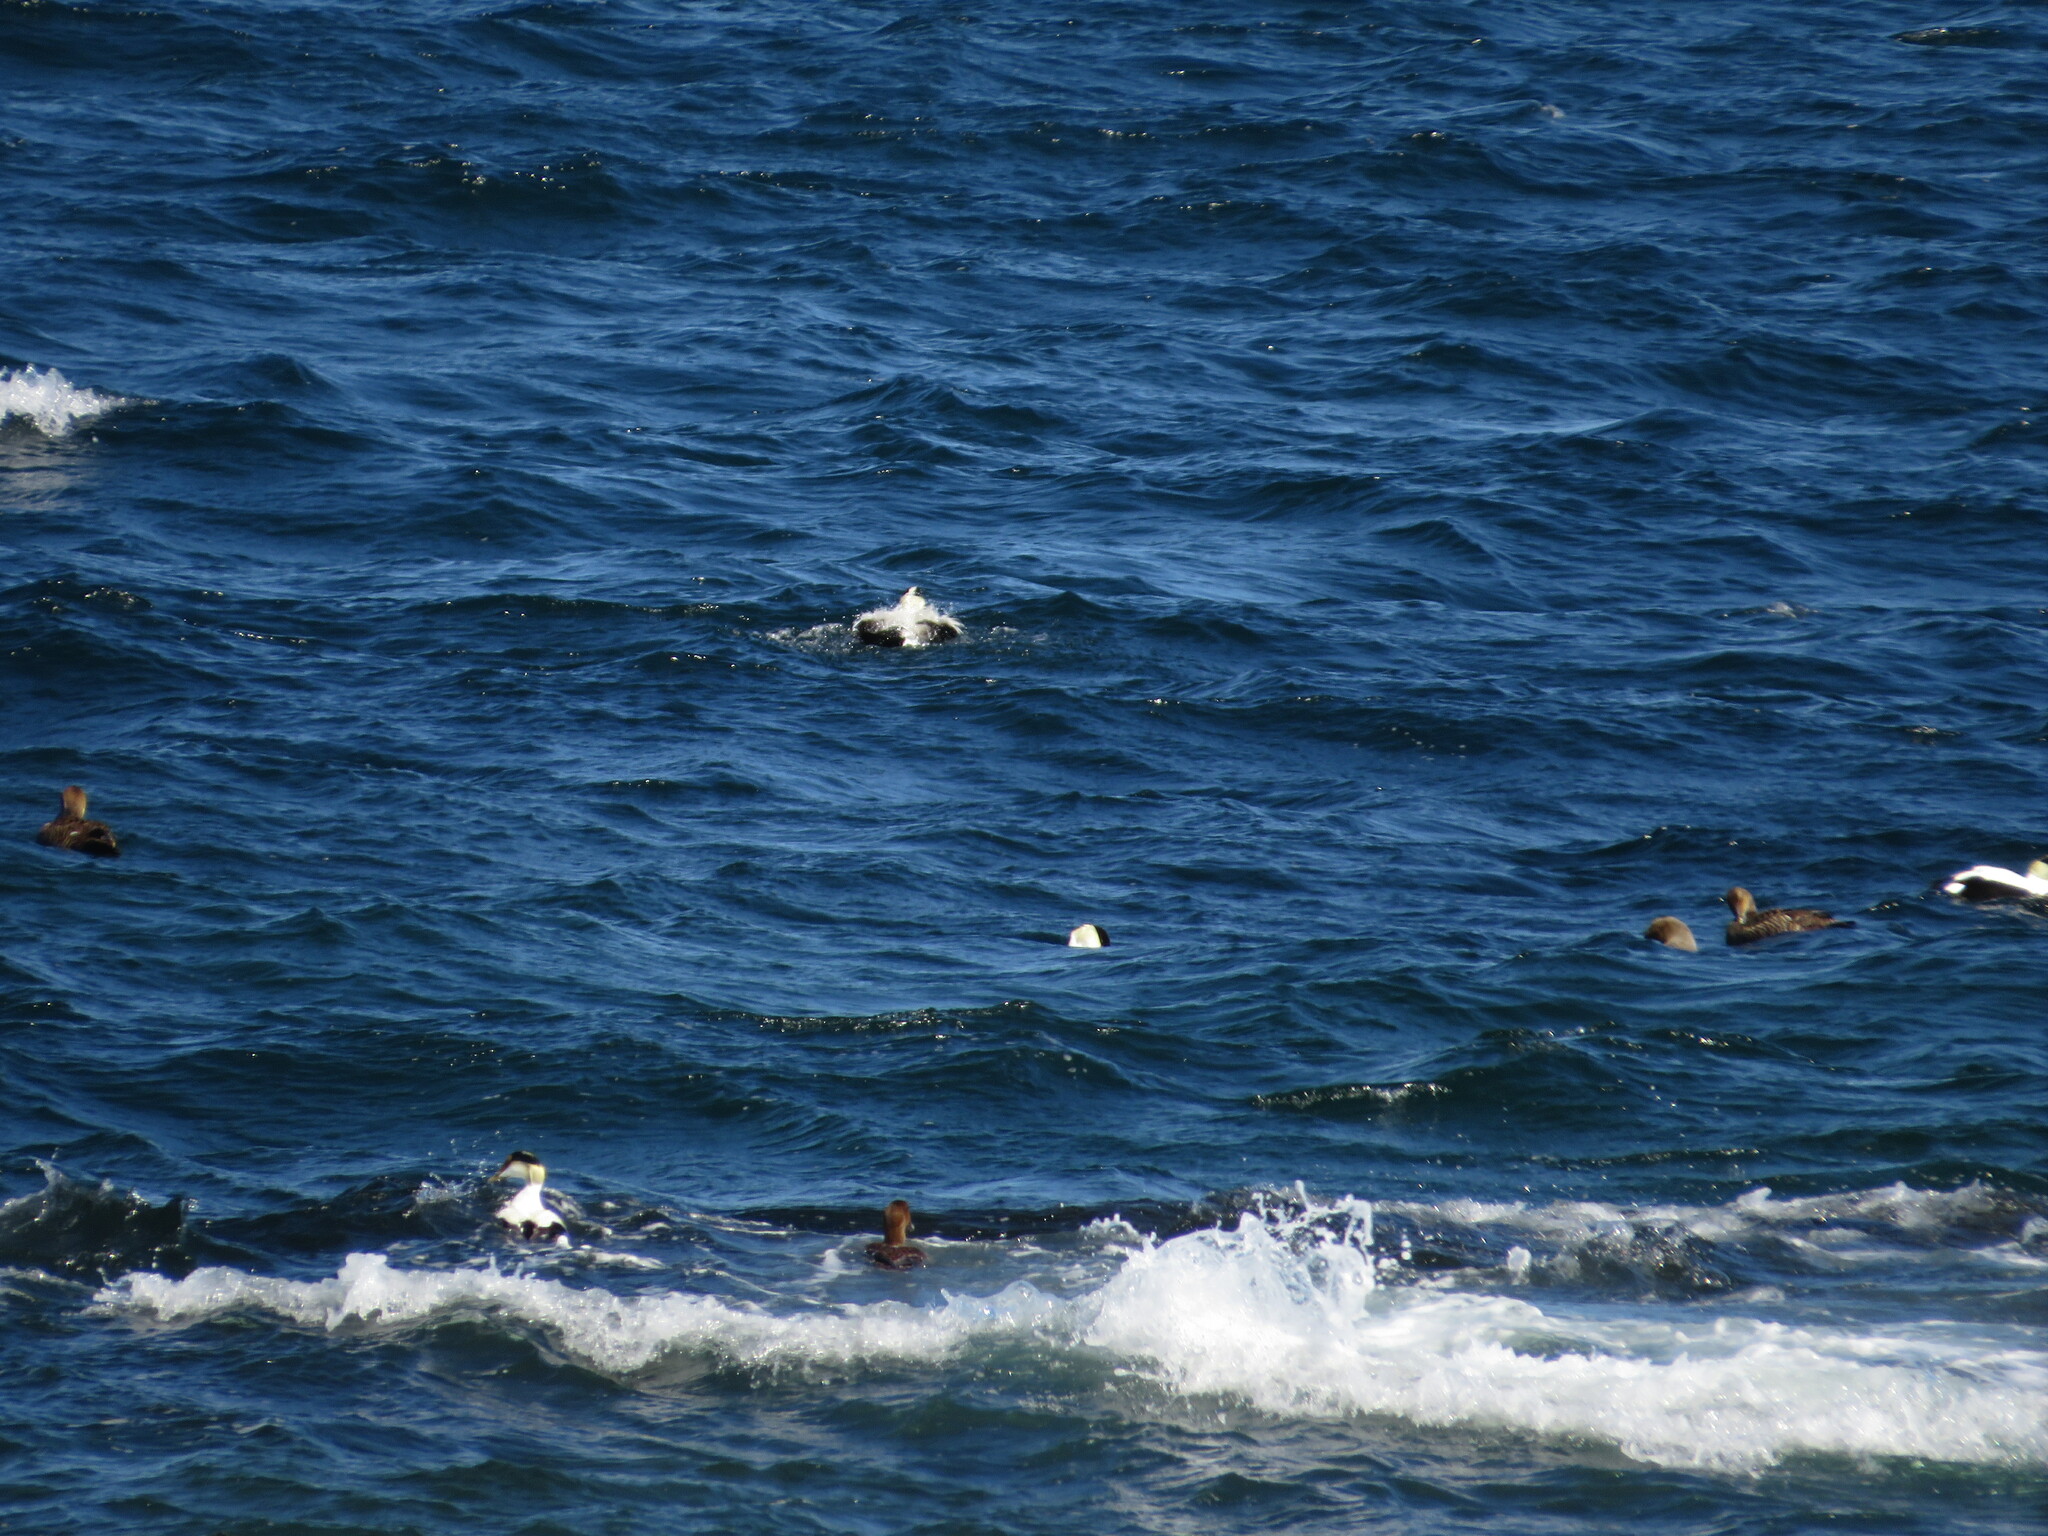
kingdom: Animalia
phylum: Chordata
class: Aves
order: Anseriformes
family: Anatidae
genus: Somateria
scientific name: Somateria mollissima
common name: Common eider
